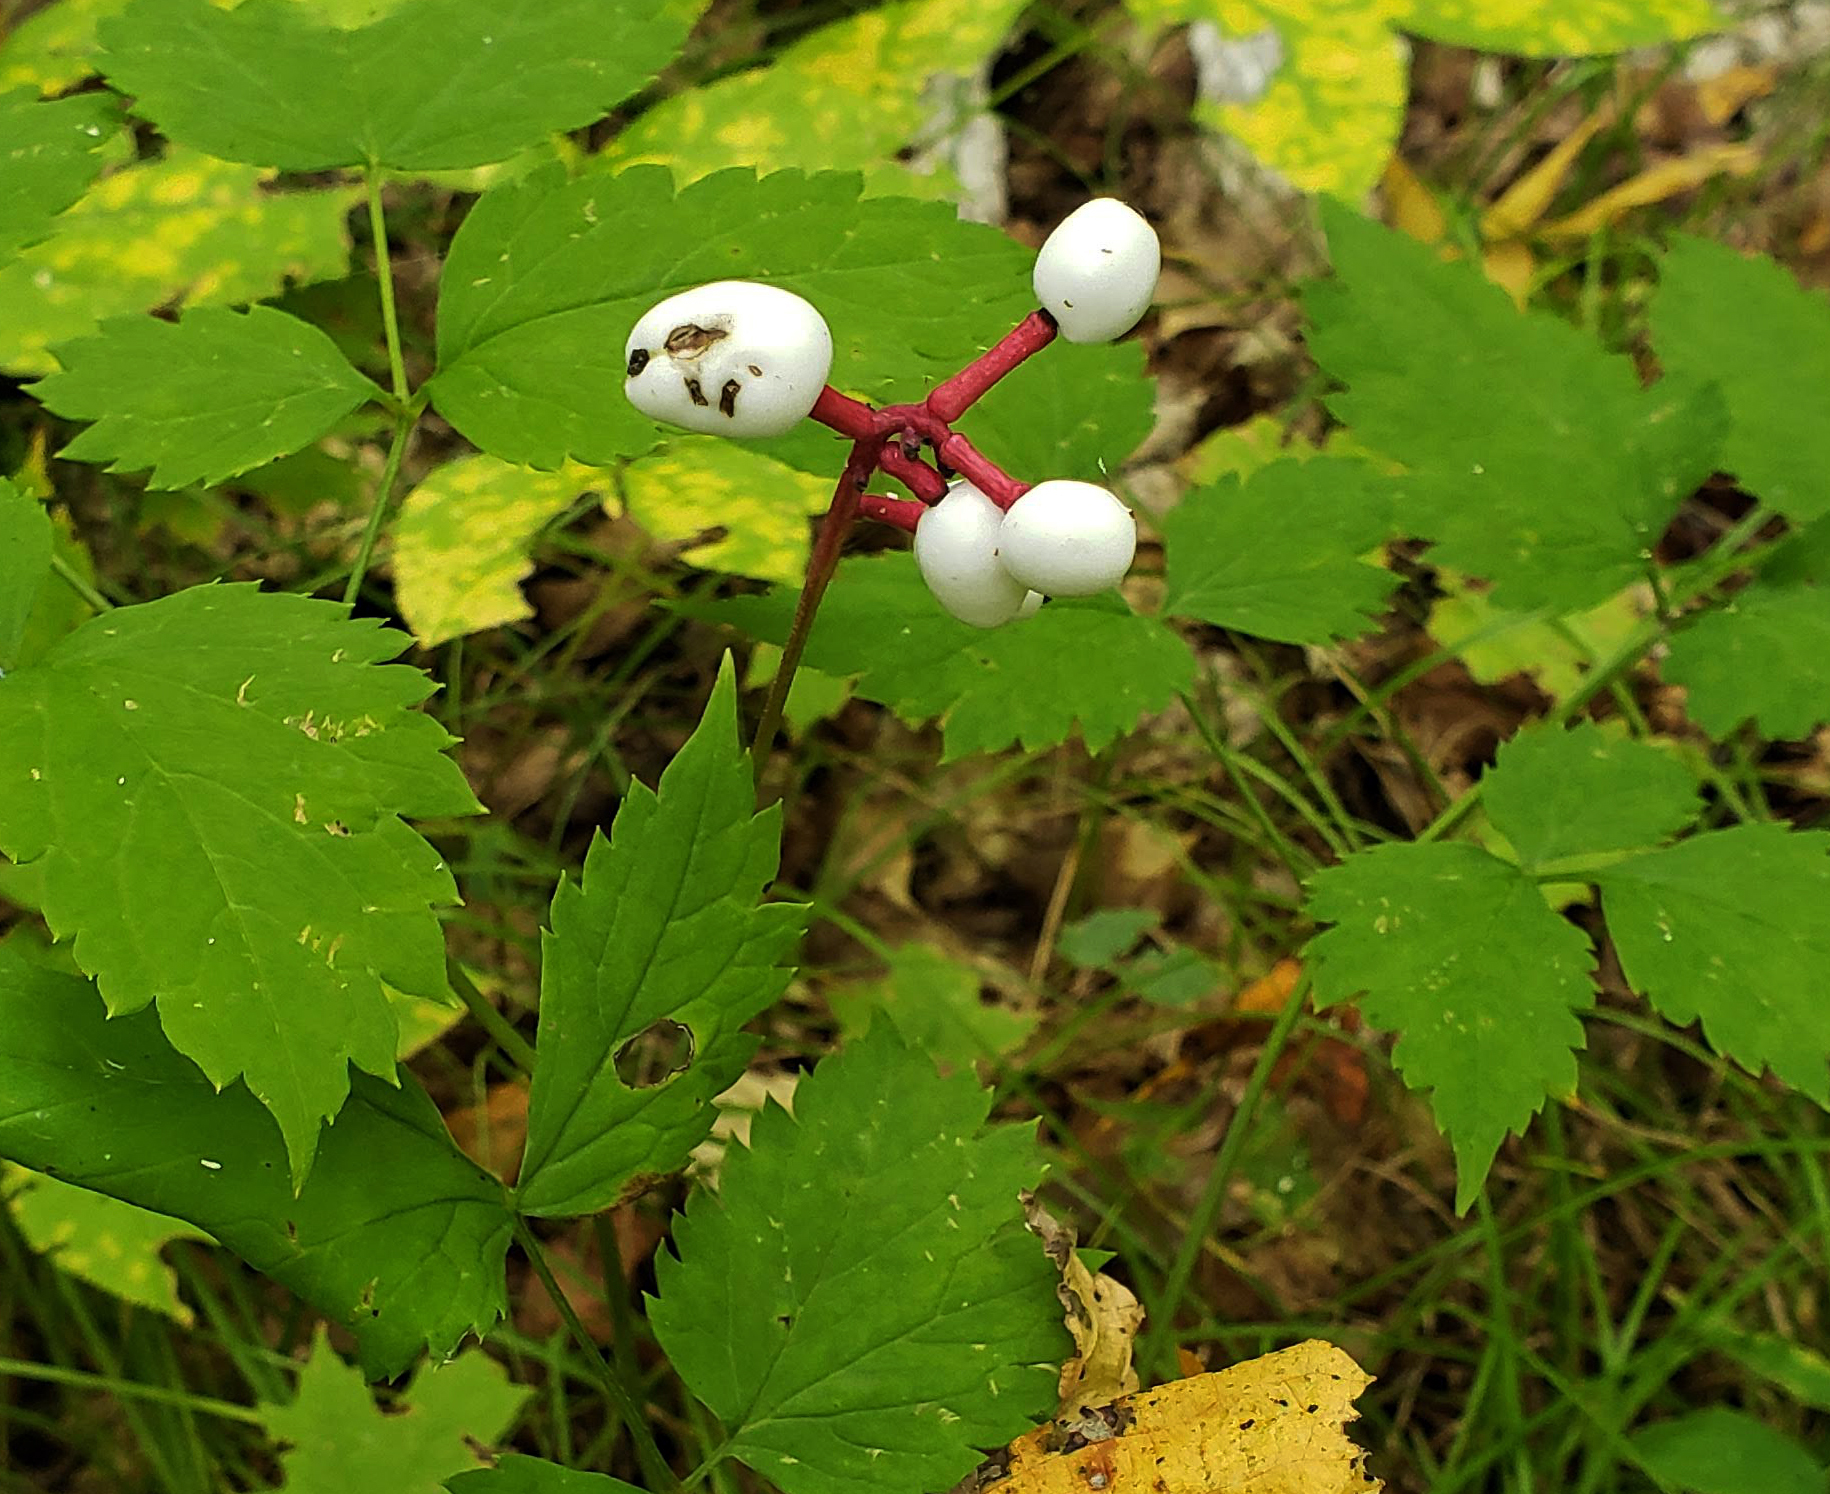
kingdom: Plantae
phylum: Tracheophyta
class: Magnoliopsida
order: Ranunculales
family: Ranunculaceae
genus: Actaea
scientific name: Actaea pachypoda
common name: Doll's-eyes
